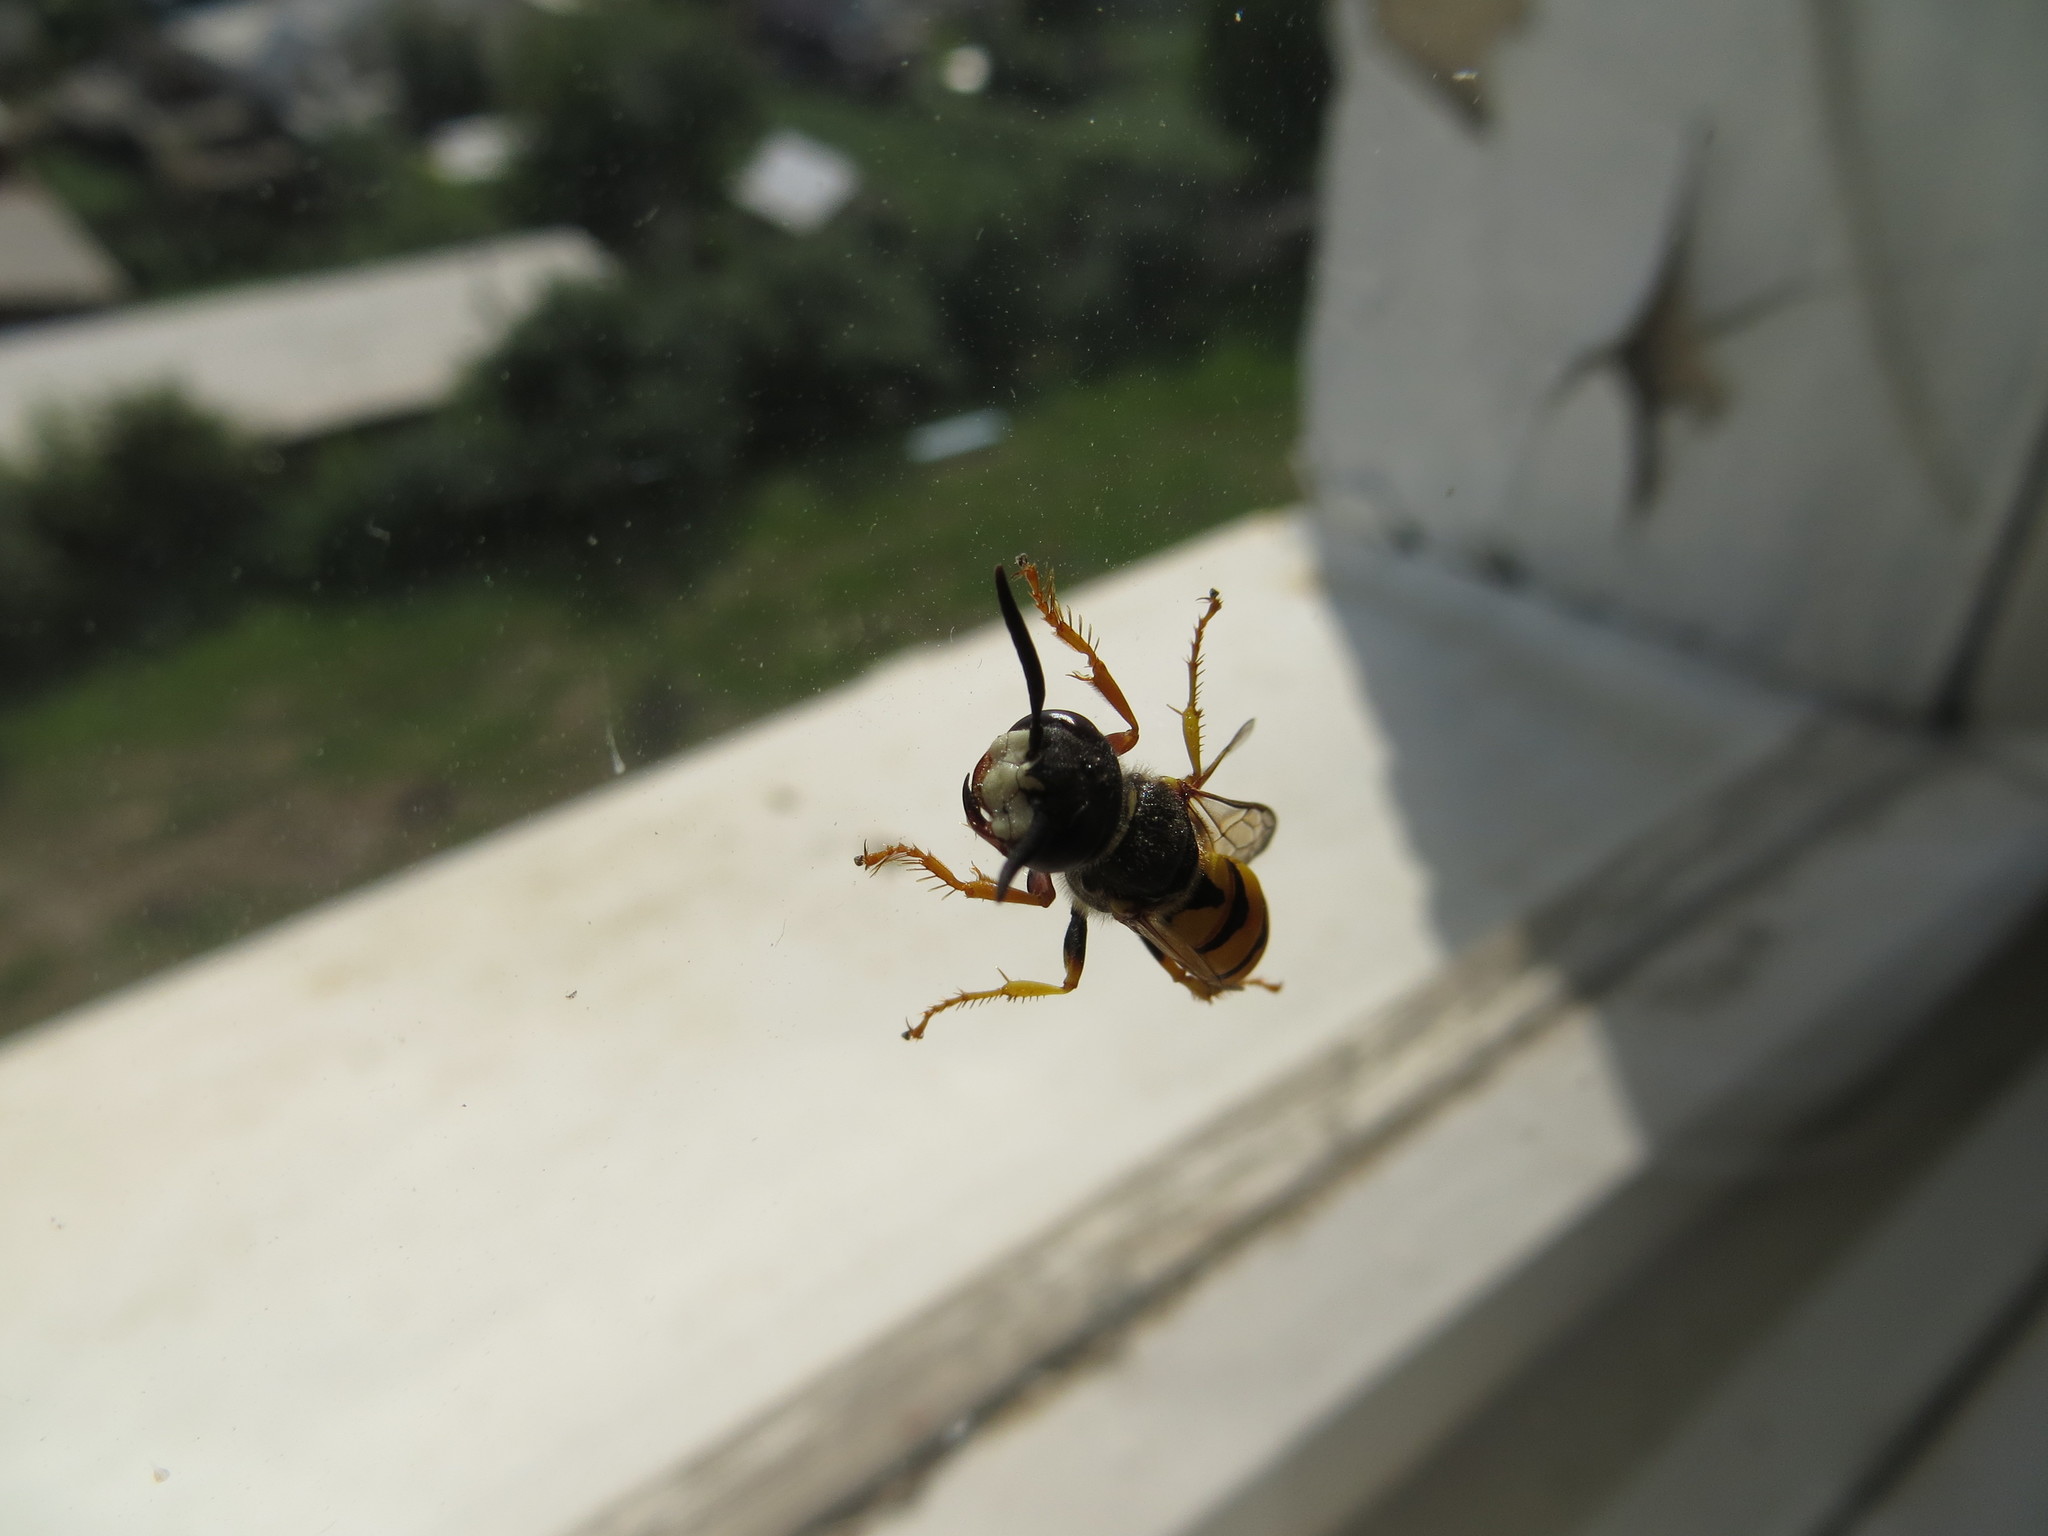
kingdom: Animalia
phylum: Arthropoda
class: Insecta
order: Hymenoptera
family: Crabronidae
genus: Philanthus
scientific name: Philanthus triangulum
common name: Bee wolf
